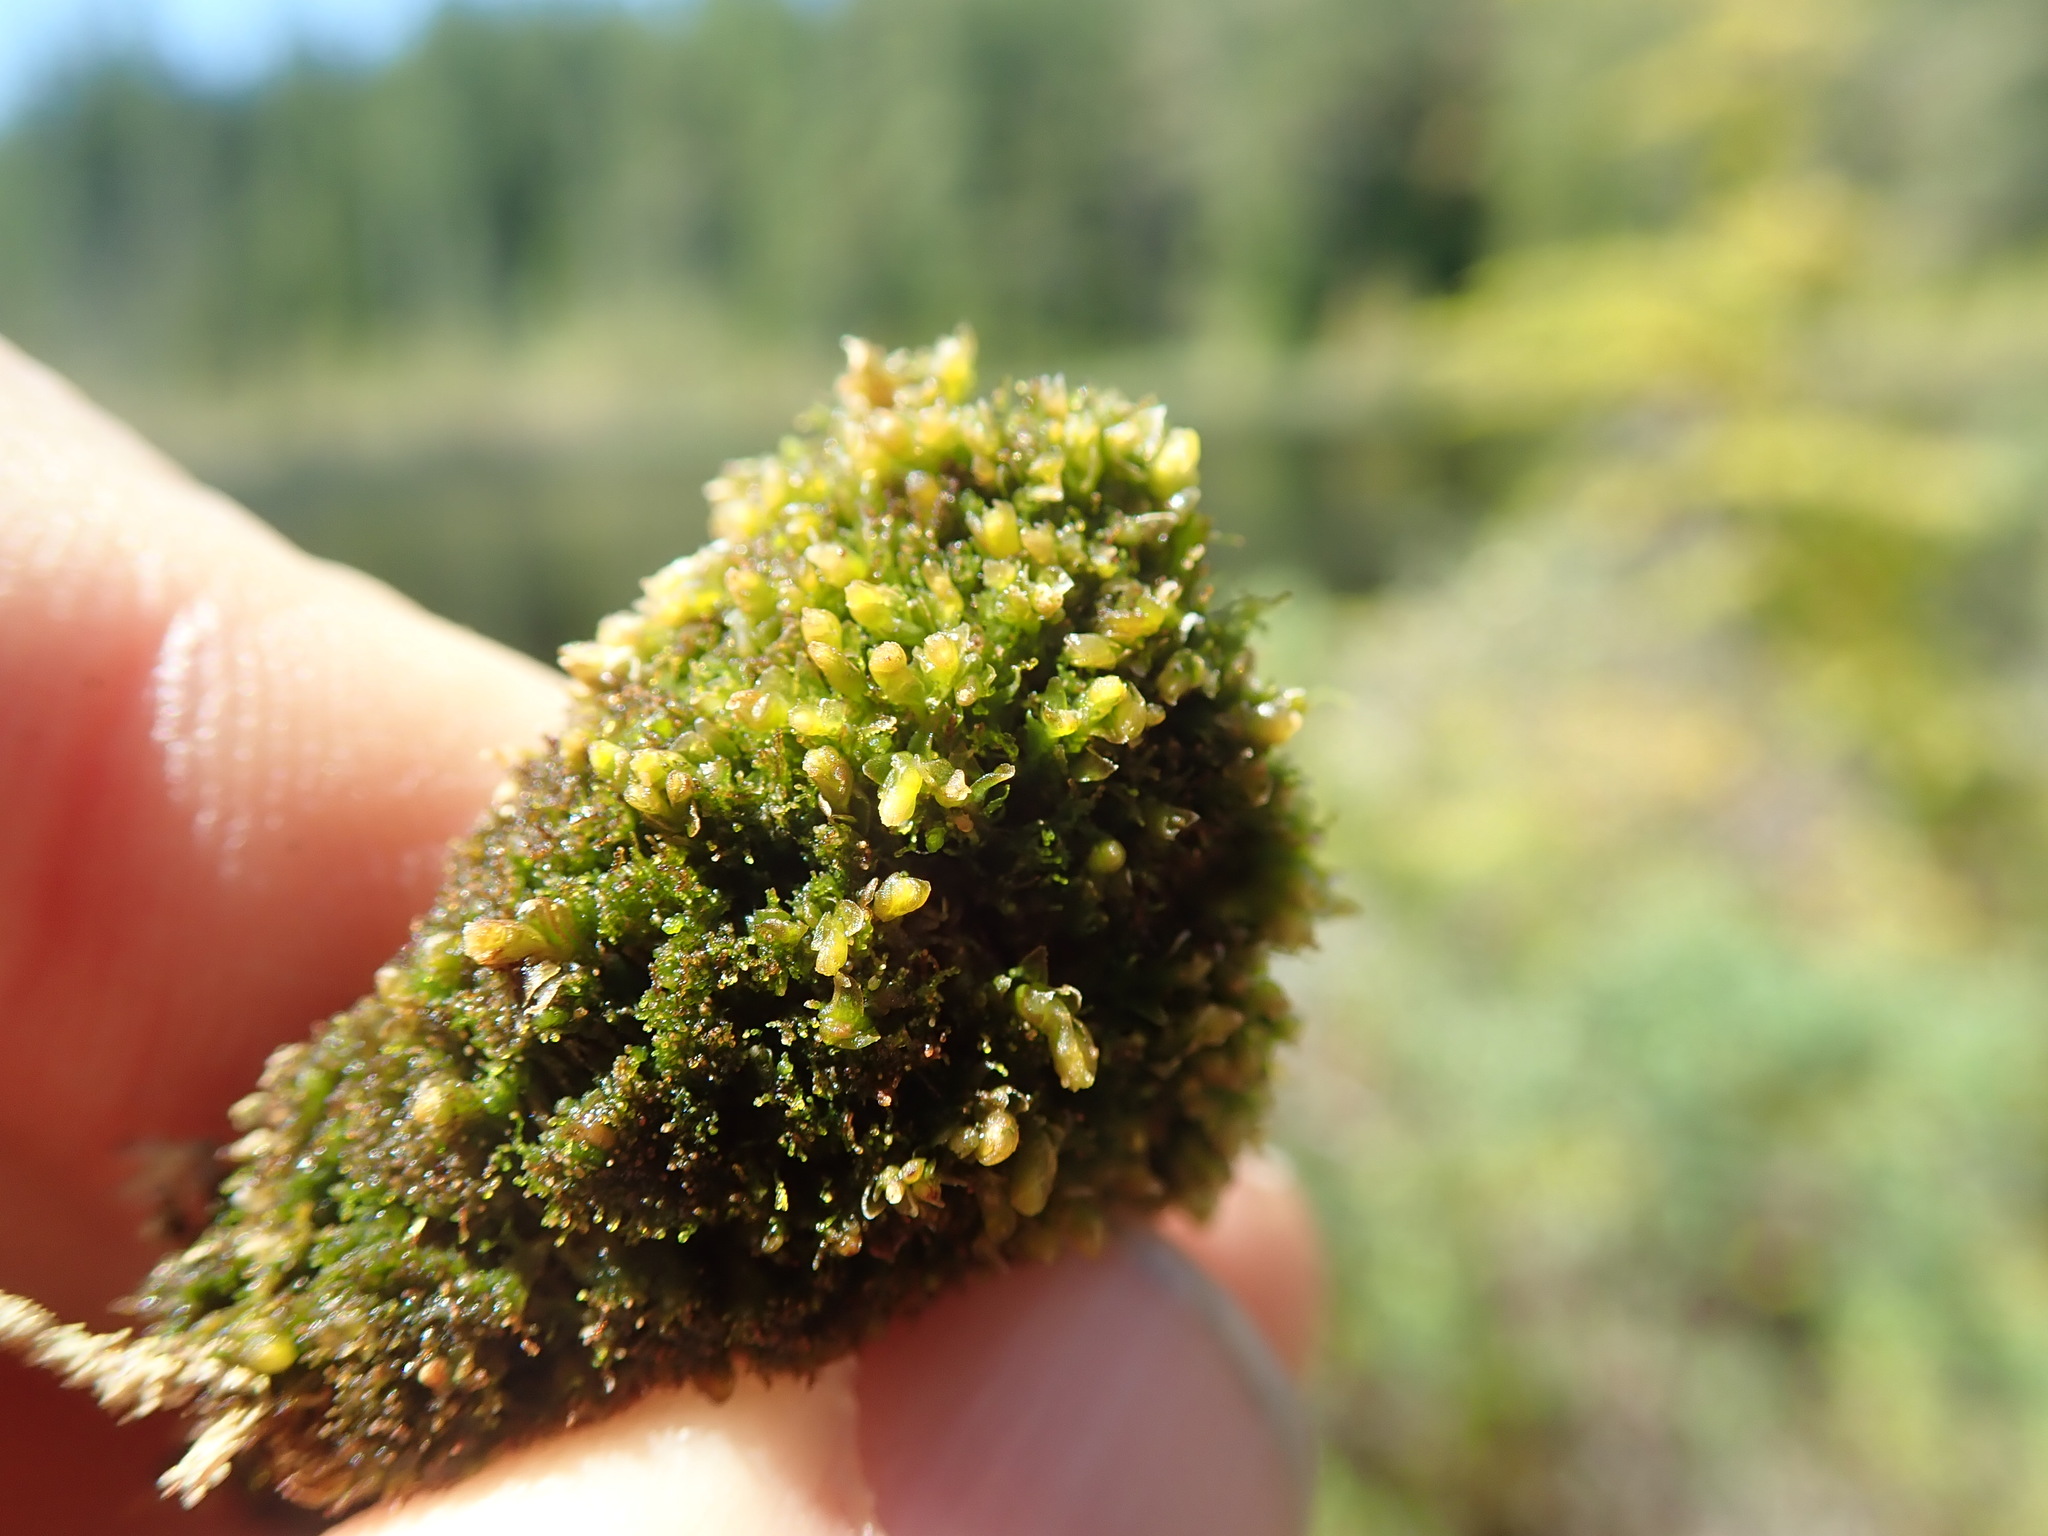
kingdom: Plantae
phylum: Marchantiophyta
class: Jungermanniopsida
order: Jungermanniales
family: Myliaceae
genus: Mylia
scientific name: Mylia anomala
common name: Anomalous flapwort
